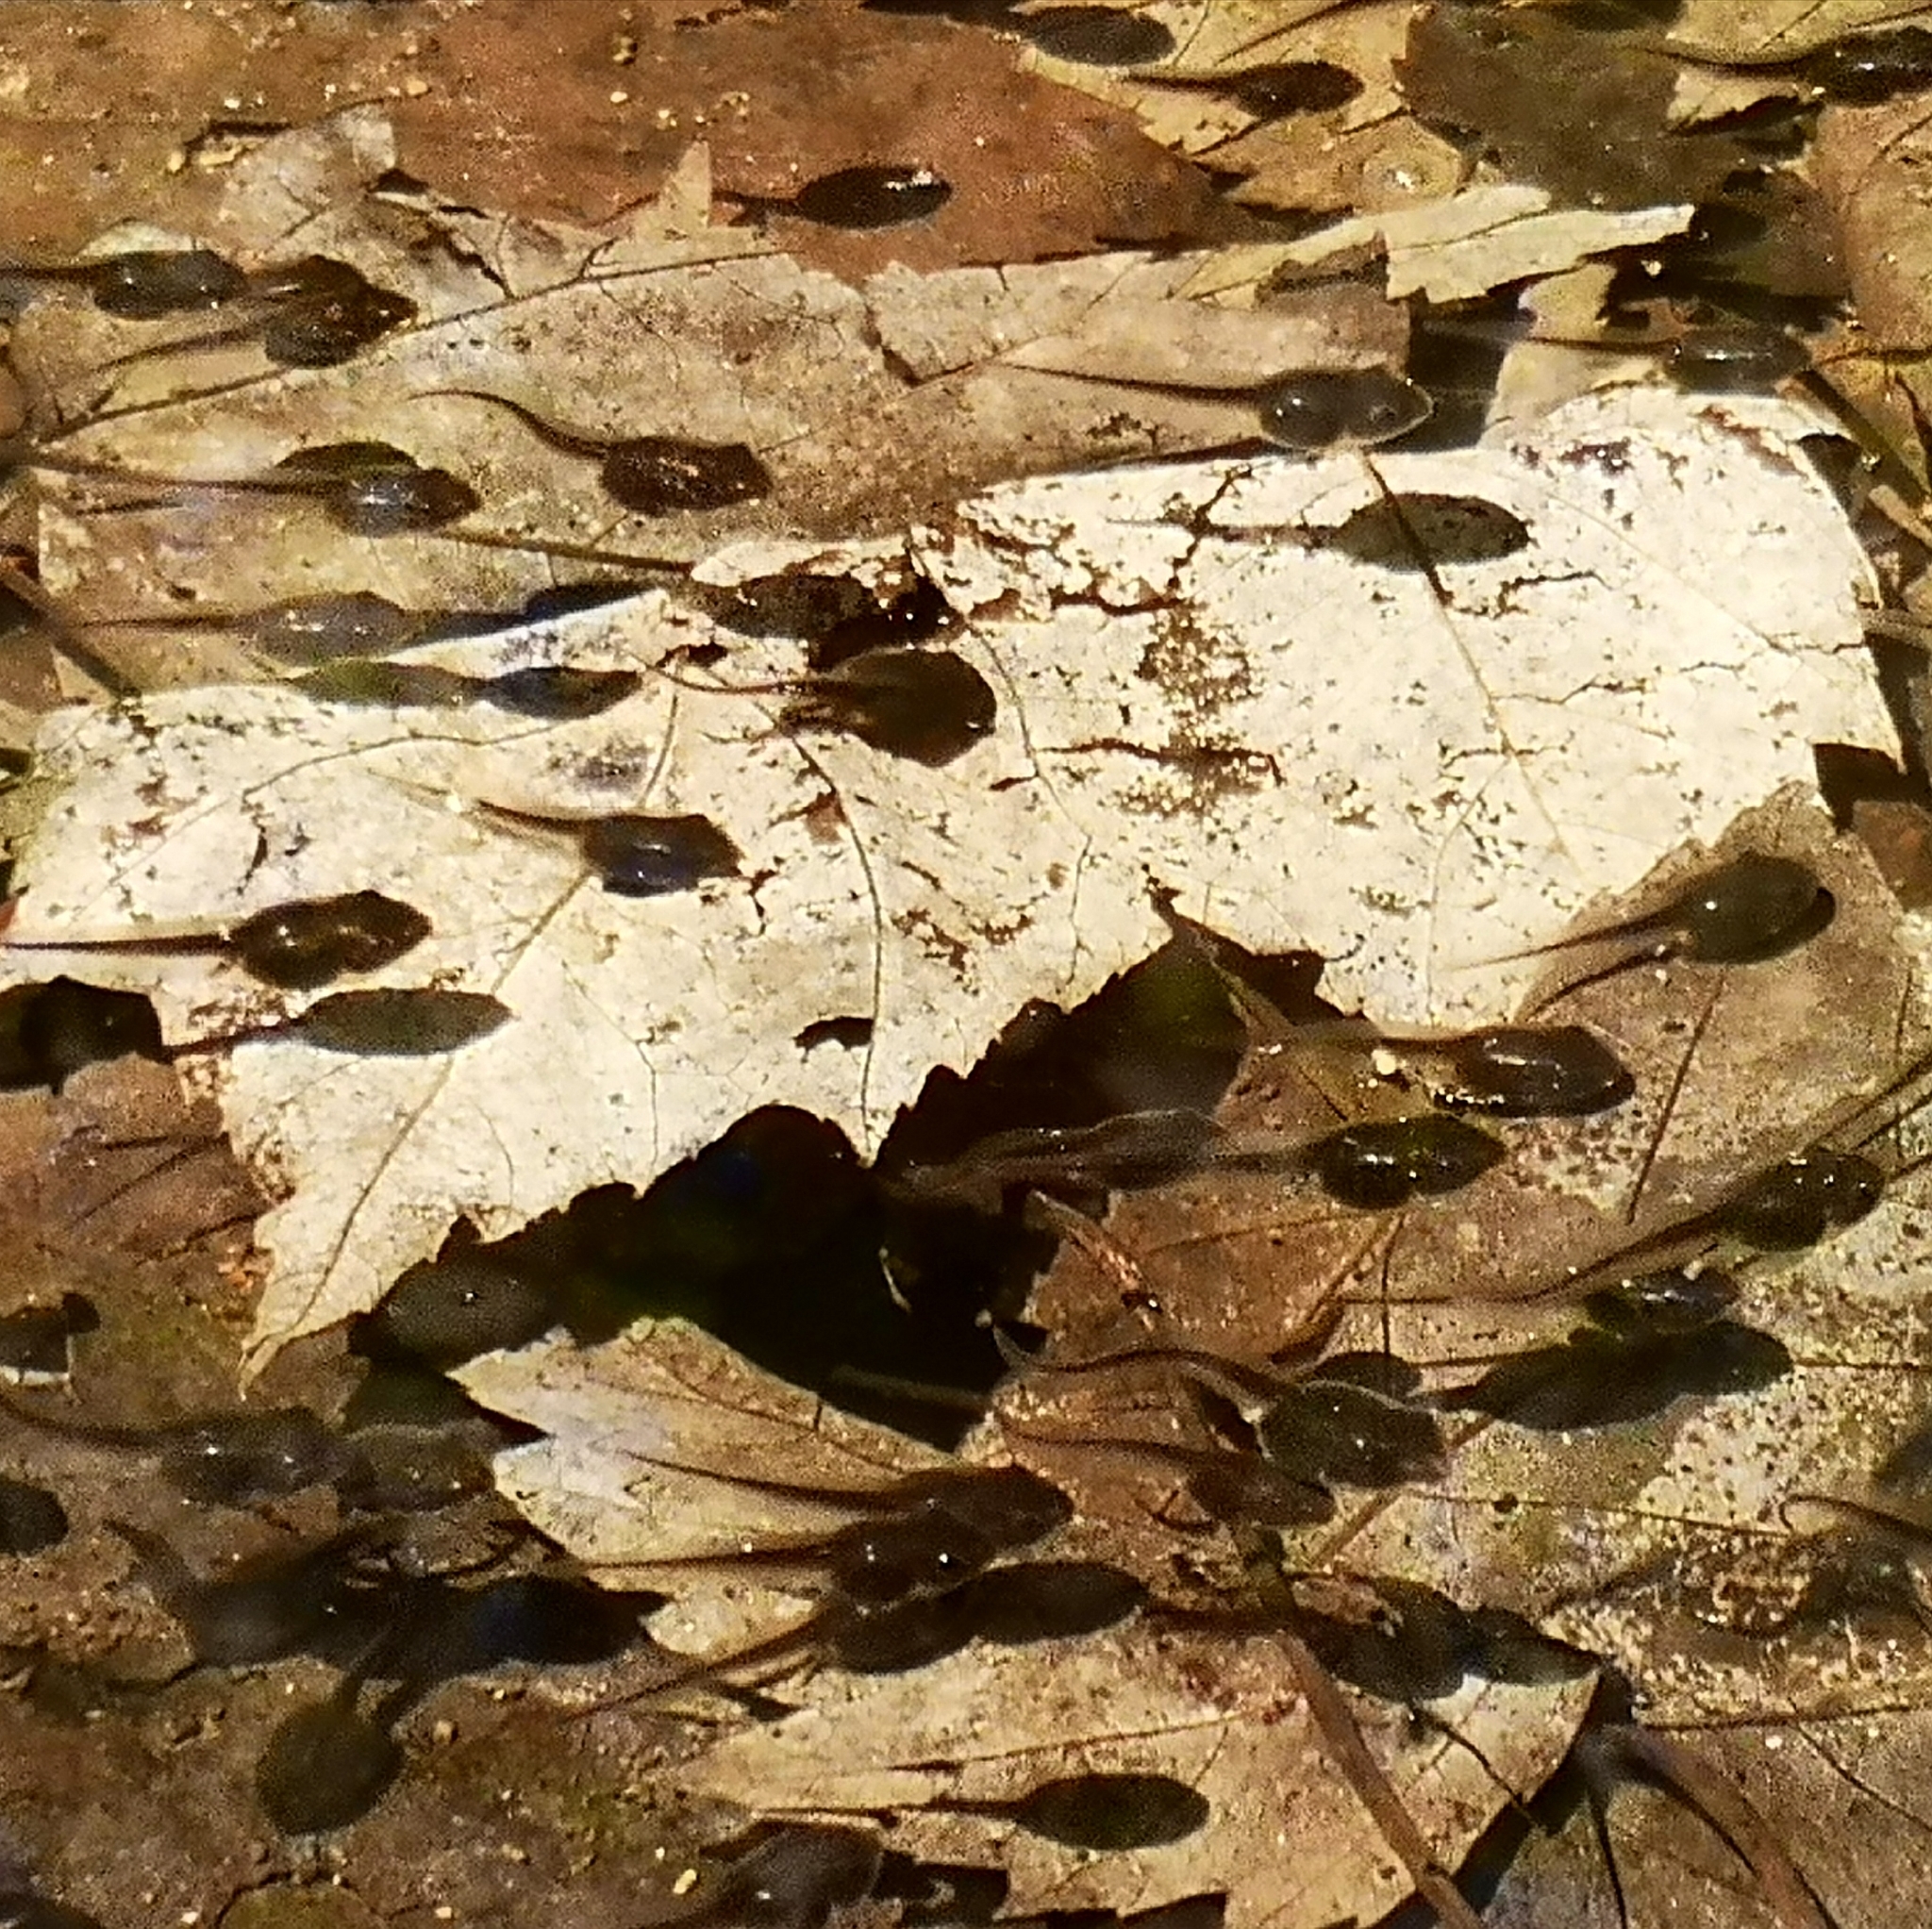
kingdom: Animalia
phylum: Chordata
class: Amphibia
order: Anura
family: Hylidae
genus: Pseudacris
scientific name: Pseudacris crucifer
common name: Spring peeper
